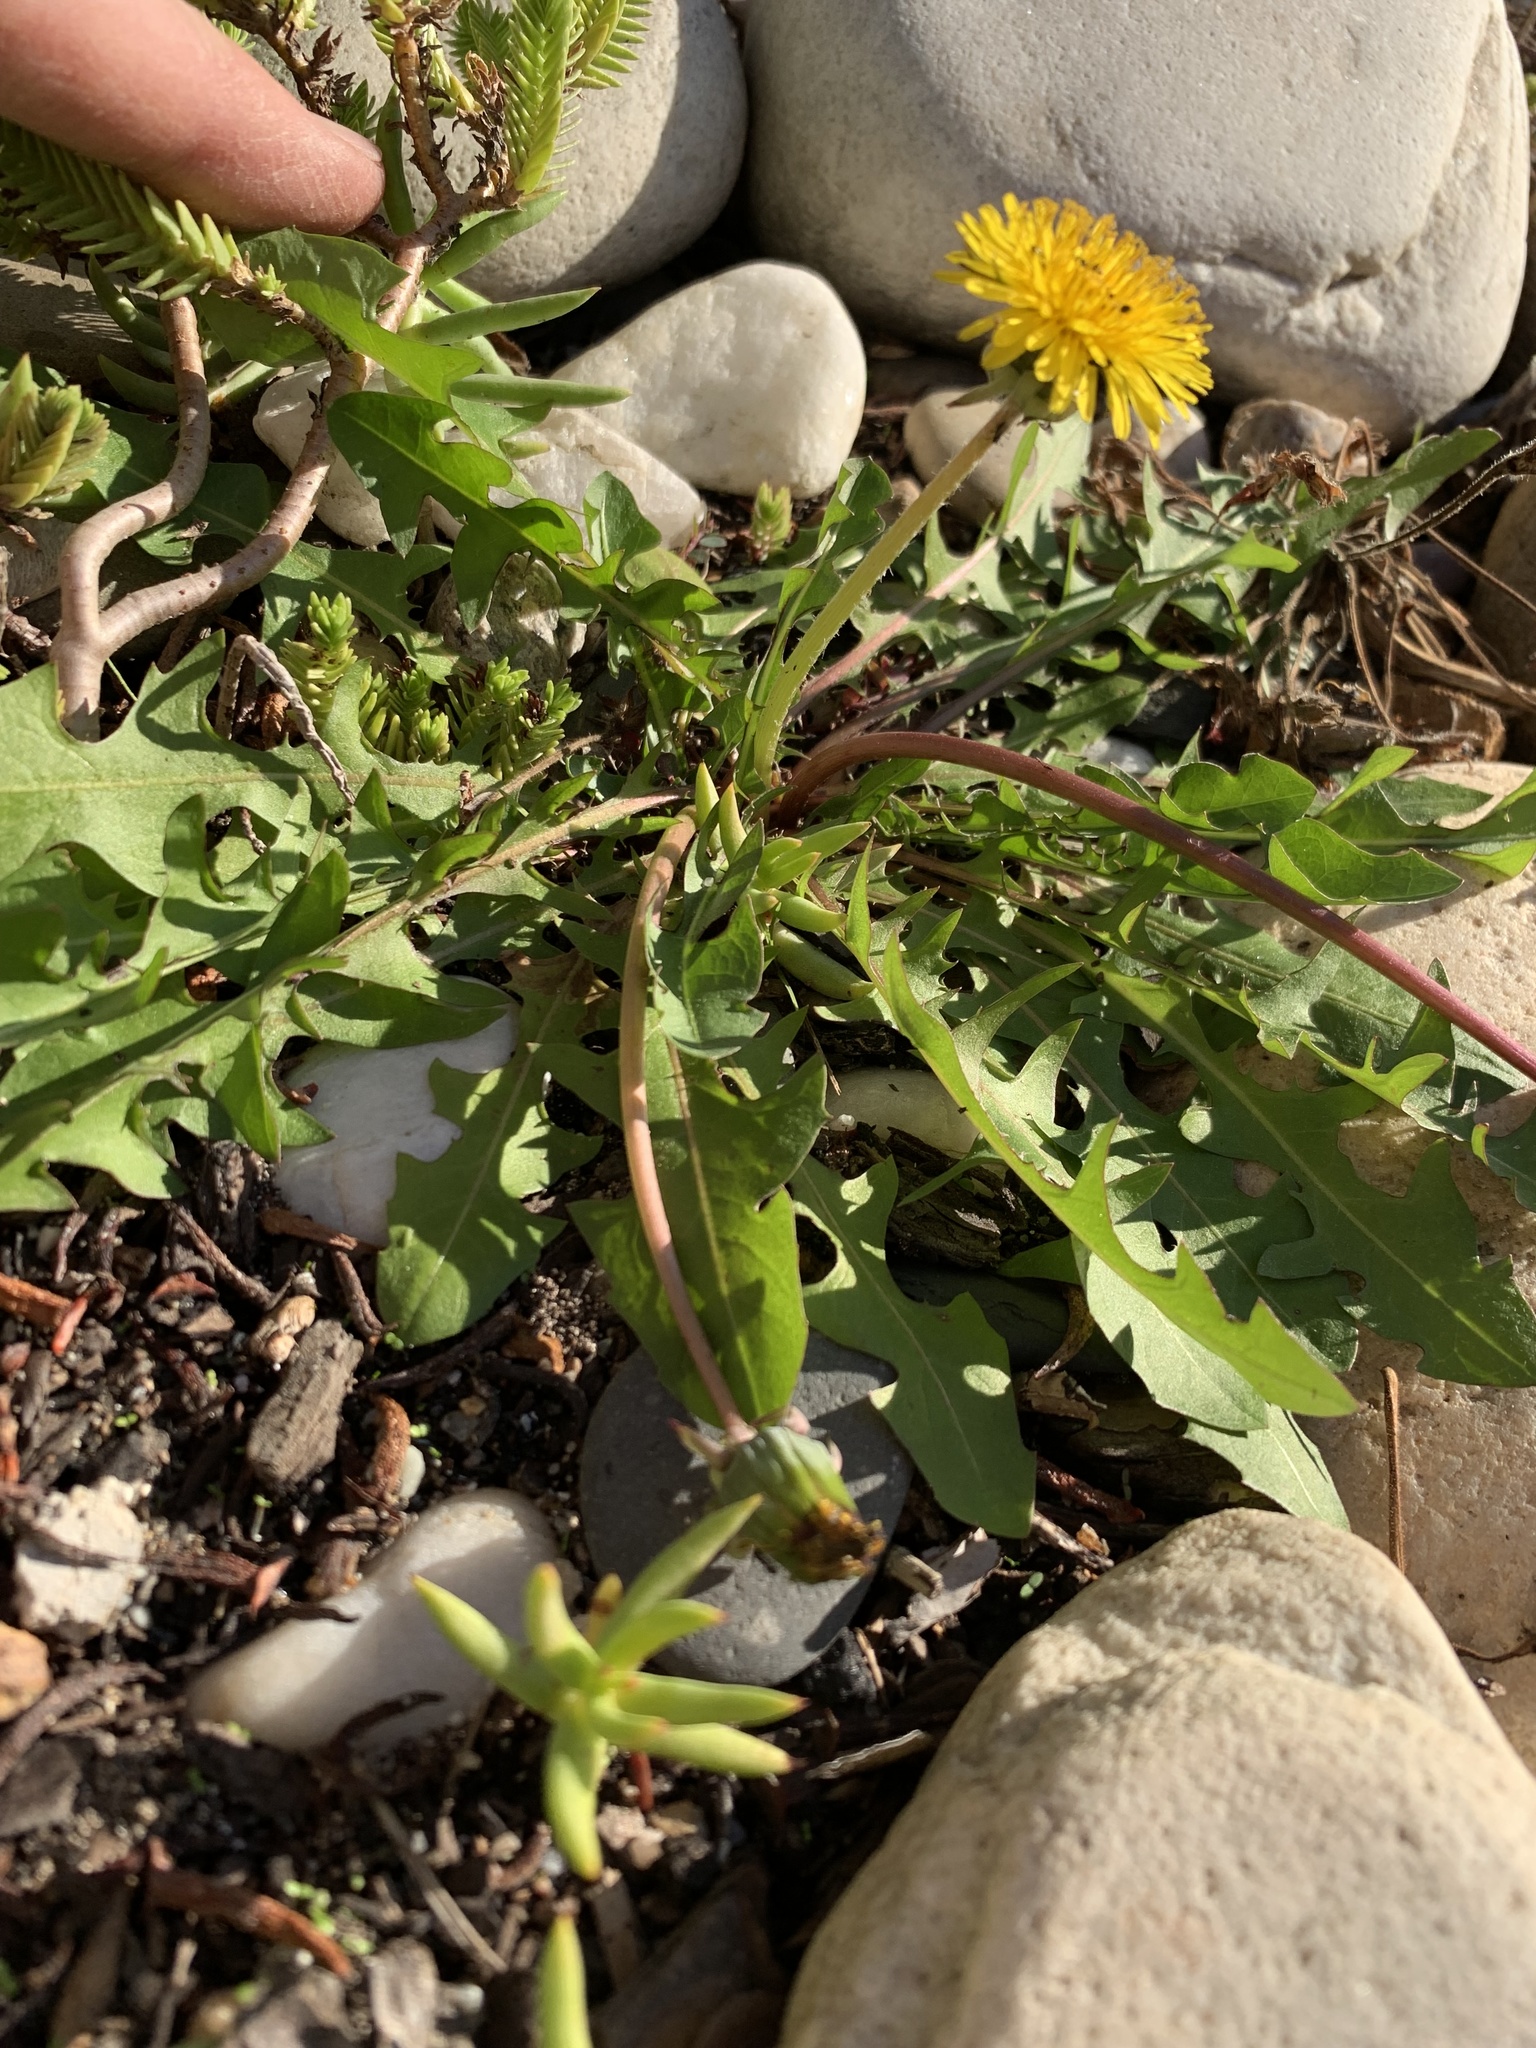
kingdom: Plantae
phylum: Tracheophyta
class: Magnoliopsida
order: Asterales
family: Asteraceae
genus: Taraxacum
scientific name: Taraxacum officinale
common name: Common dandelion
